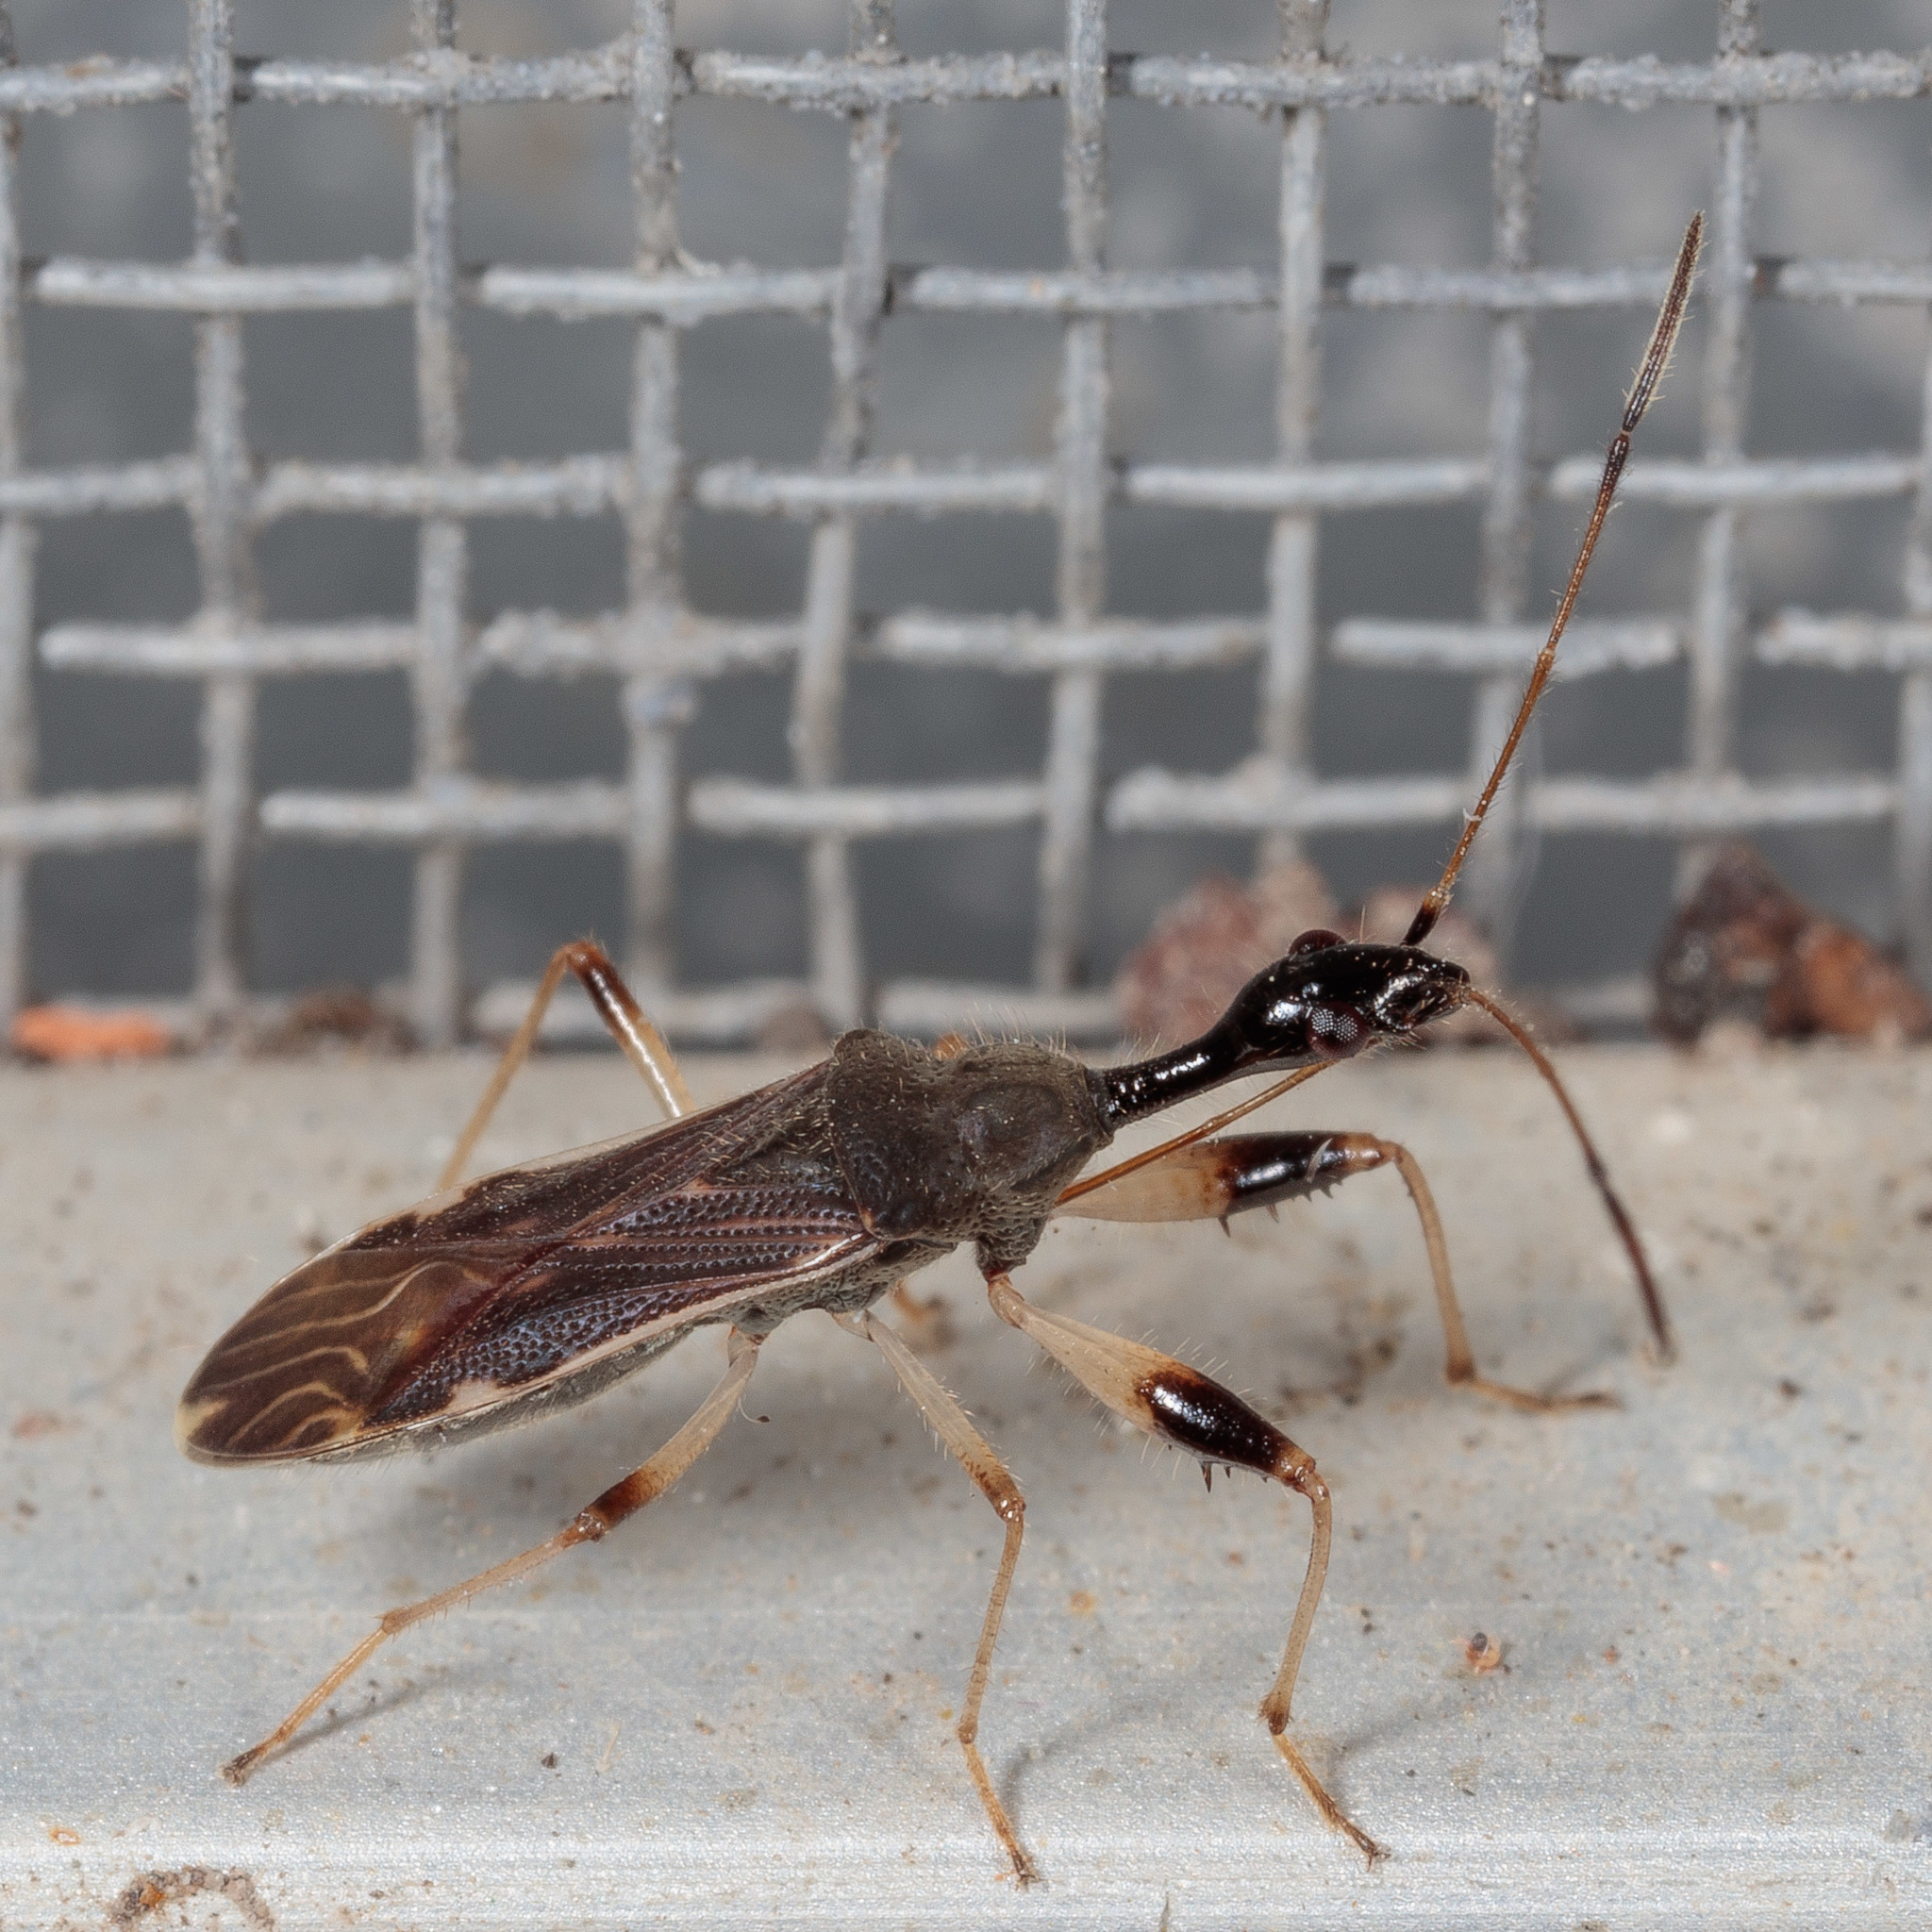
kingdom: Animalia
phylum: Arthropoda
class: Insecta
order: Hemiptera
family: Rhyparochromidae
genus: Myodocha
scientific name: Myodocha serripes
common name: Long-necked seed bug
